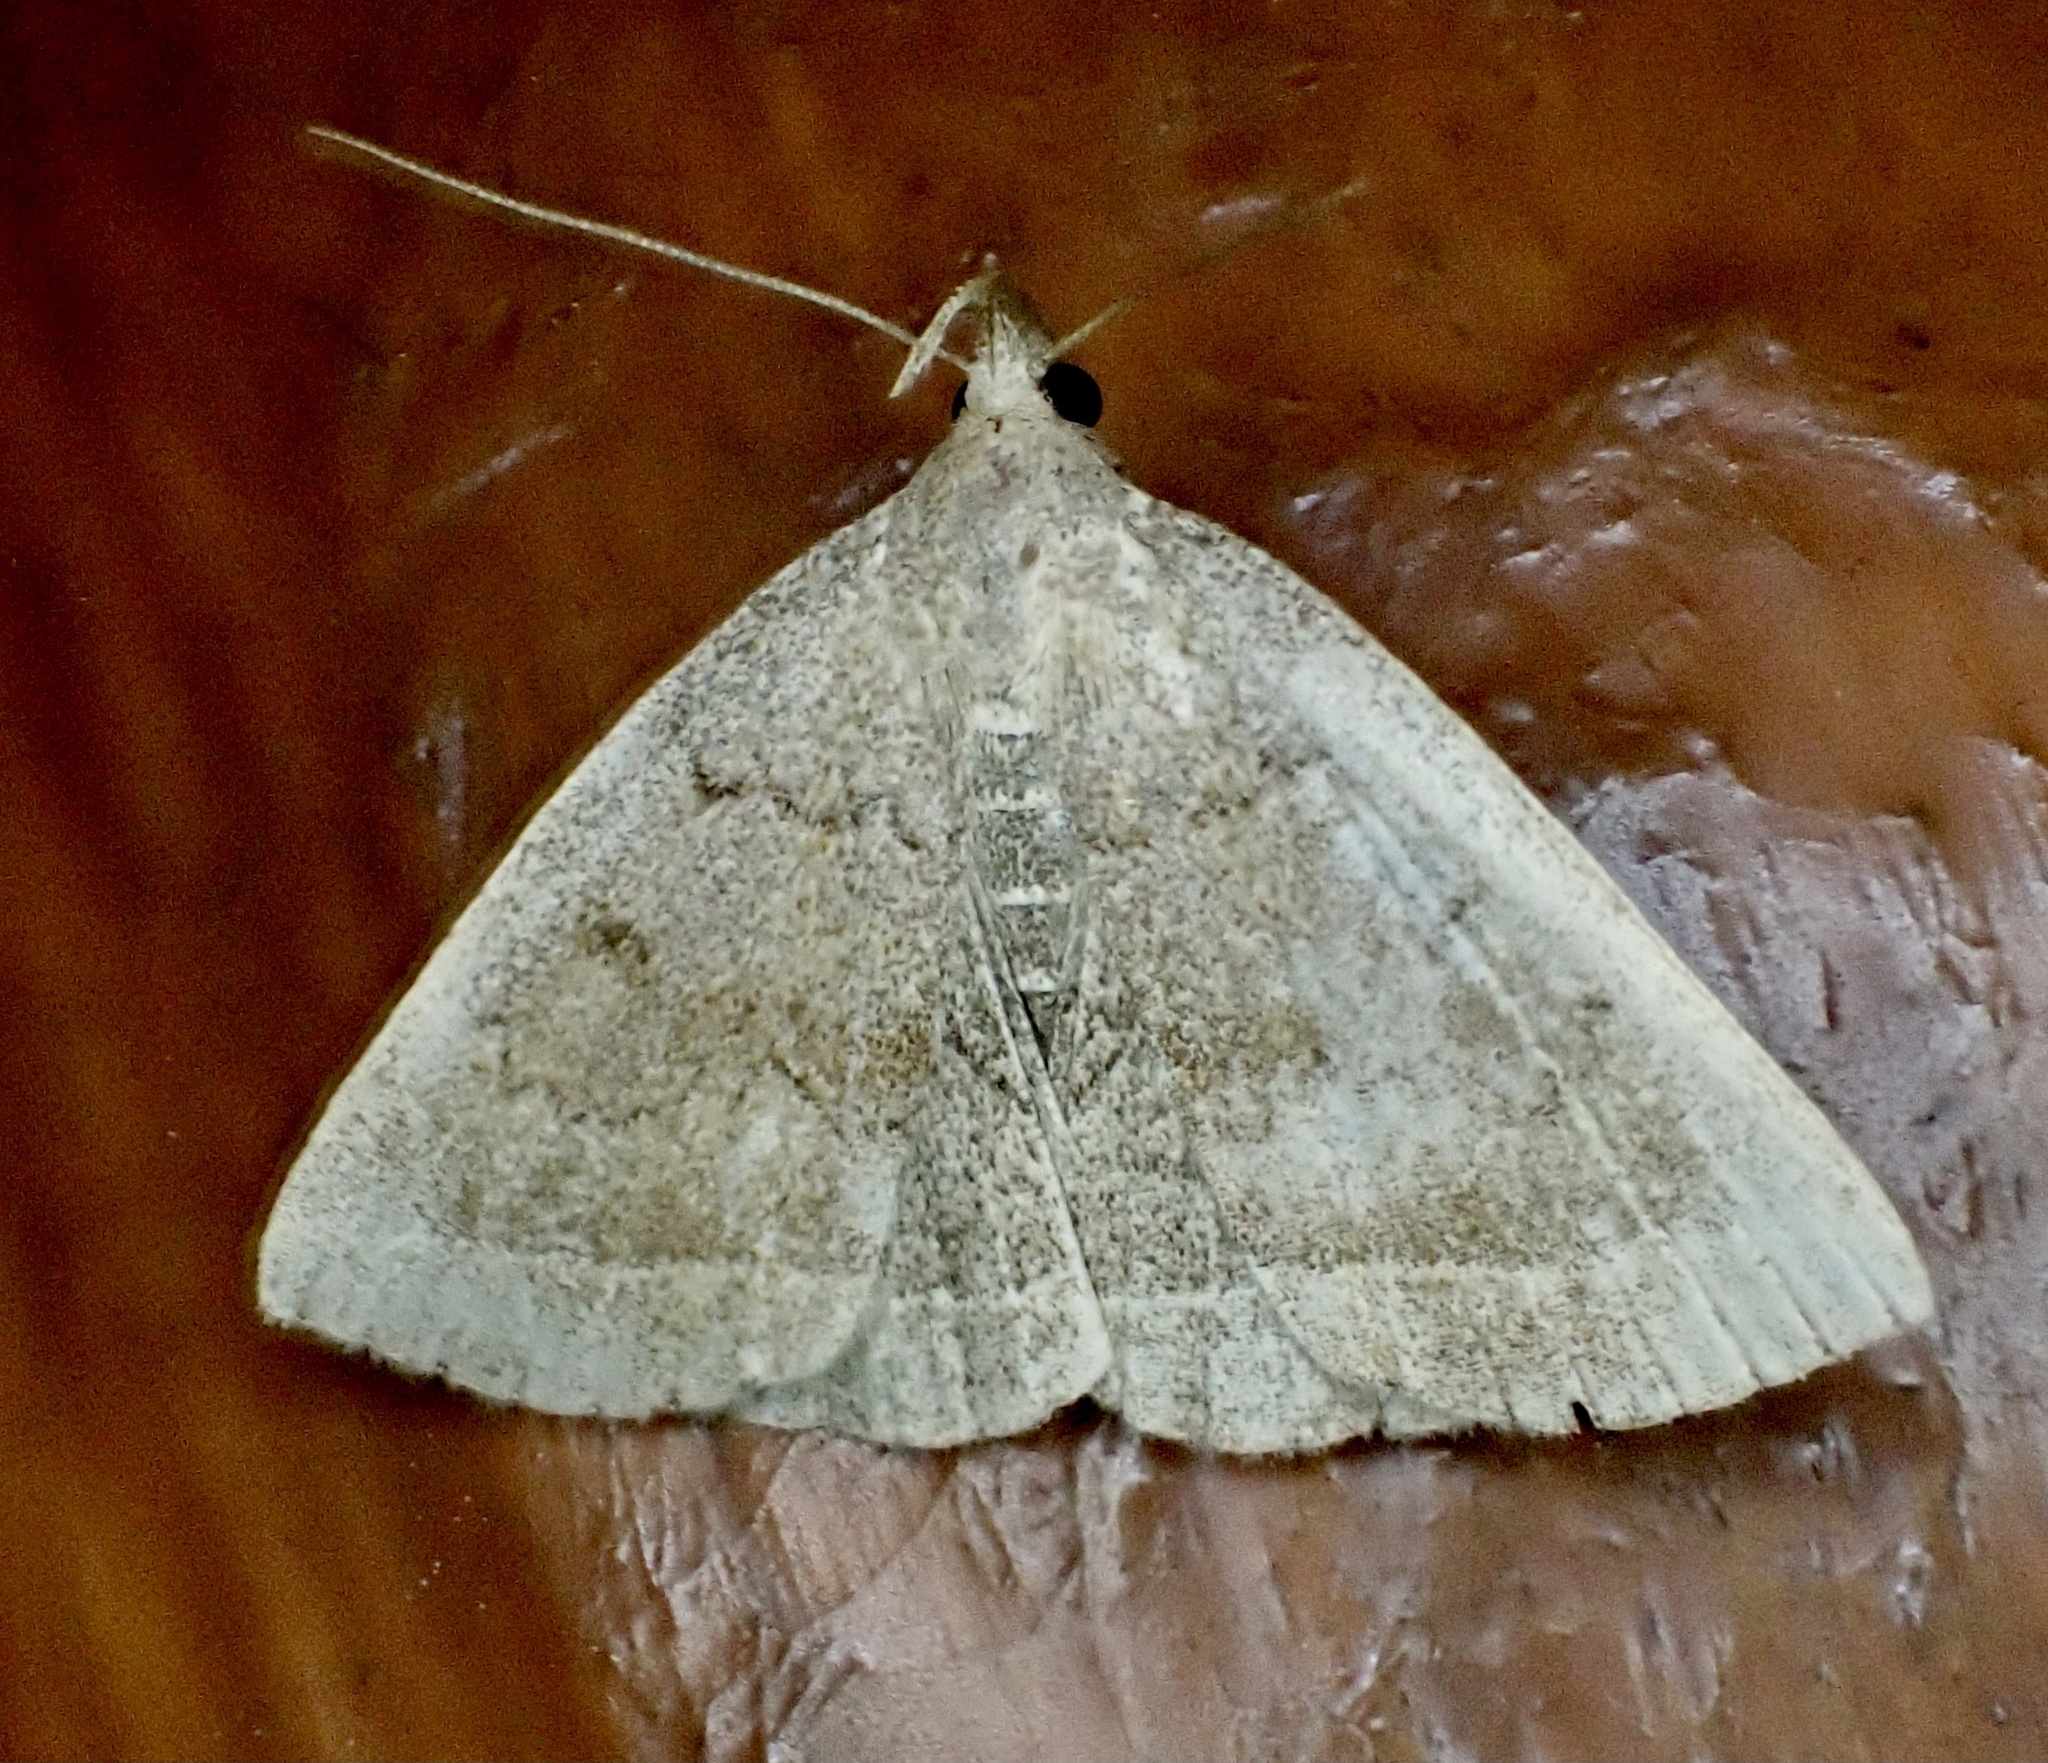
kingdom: Animalia
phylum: Arthropoda
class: Insecta
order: Lepidoptera
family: Erebidae
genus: Zanclognatha
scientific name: Zanclognatha jacchusalis
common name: Yellowish zanclognatha
